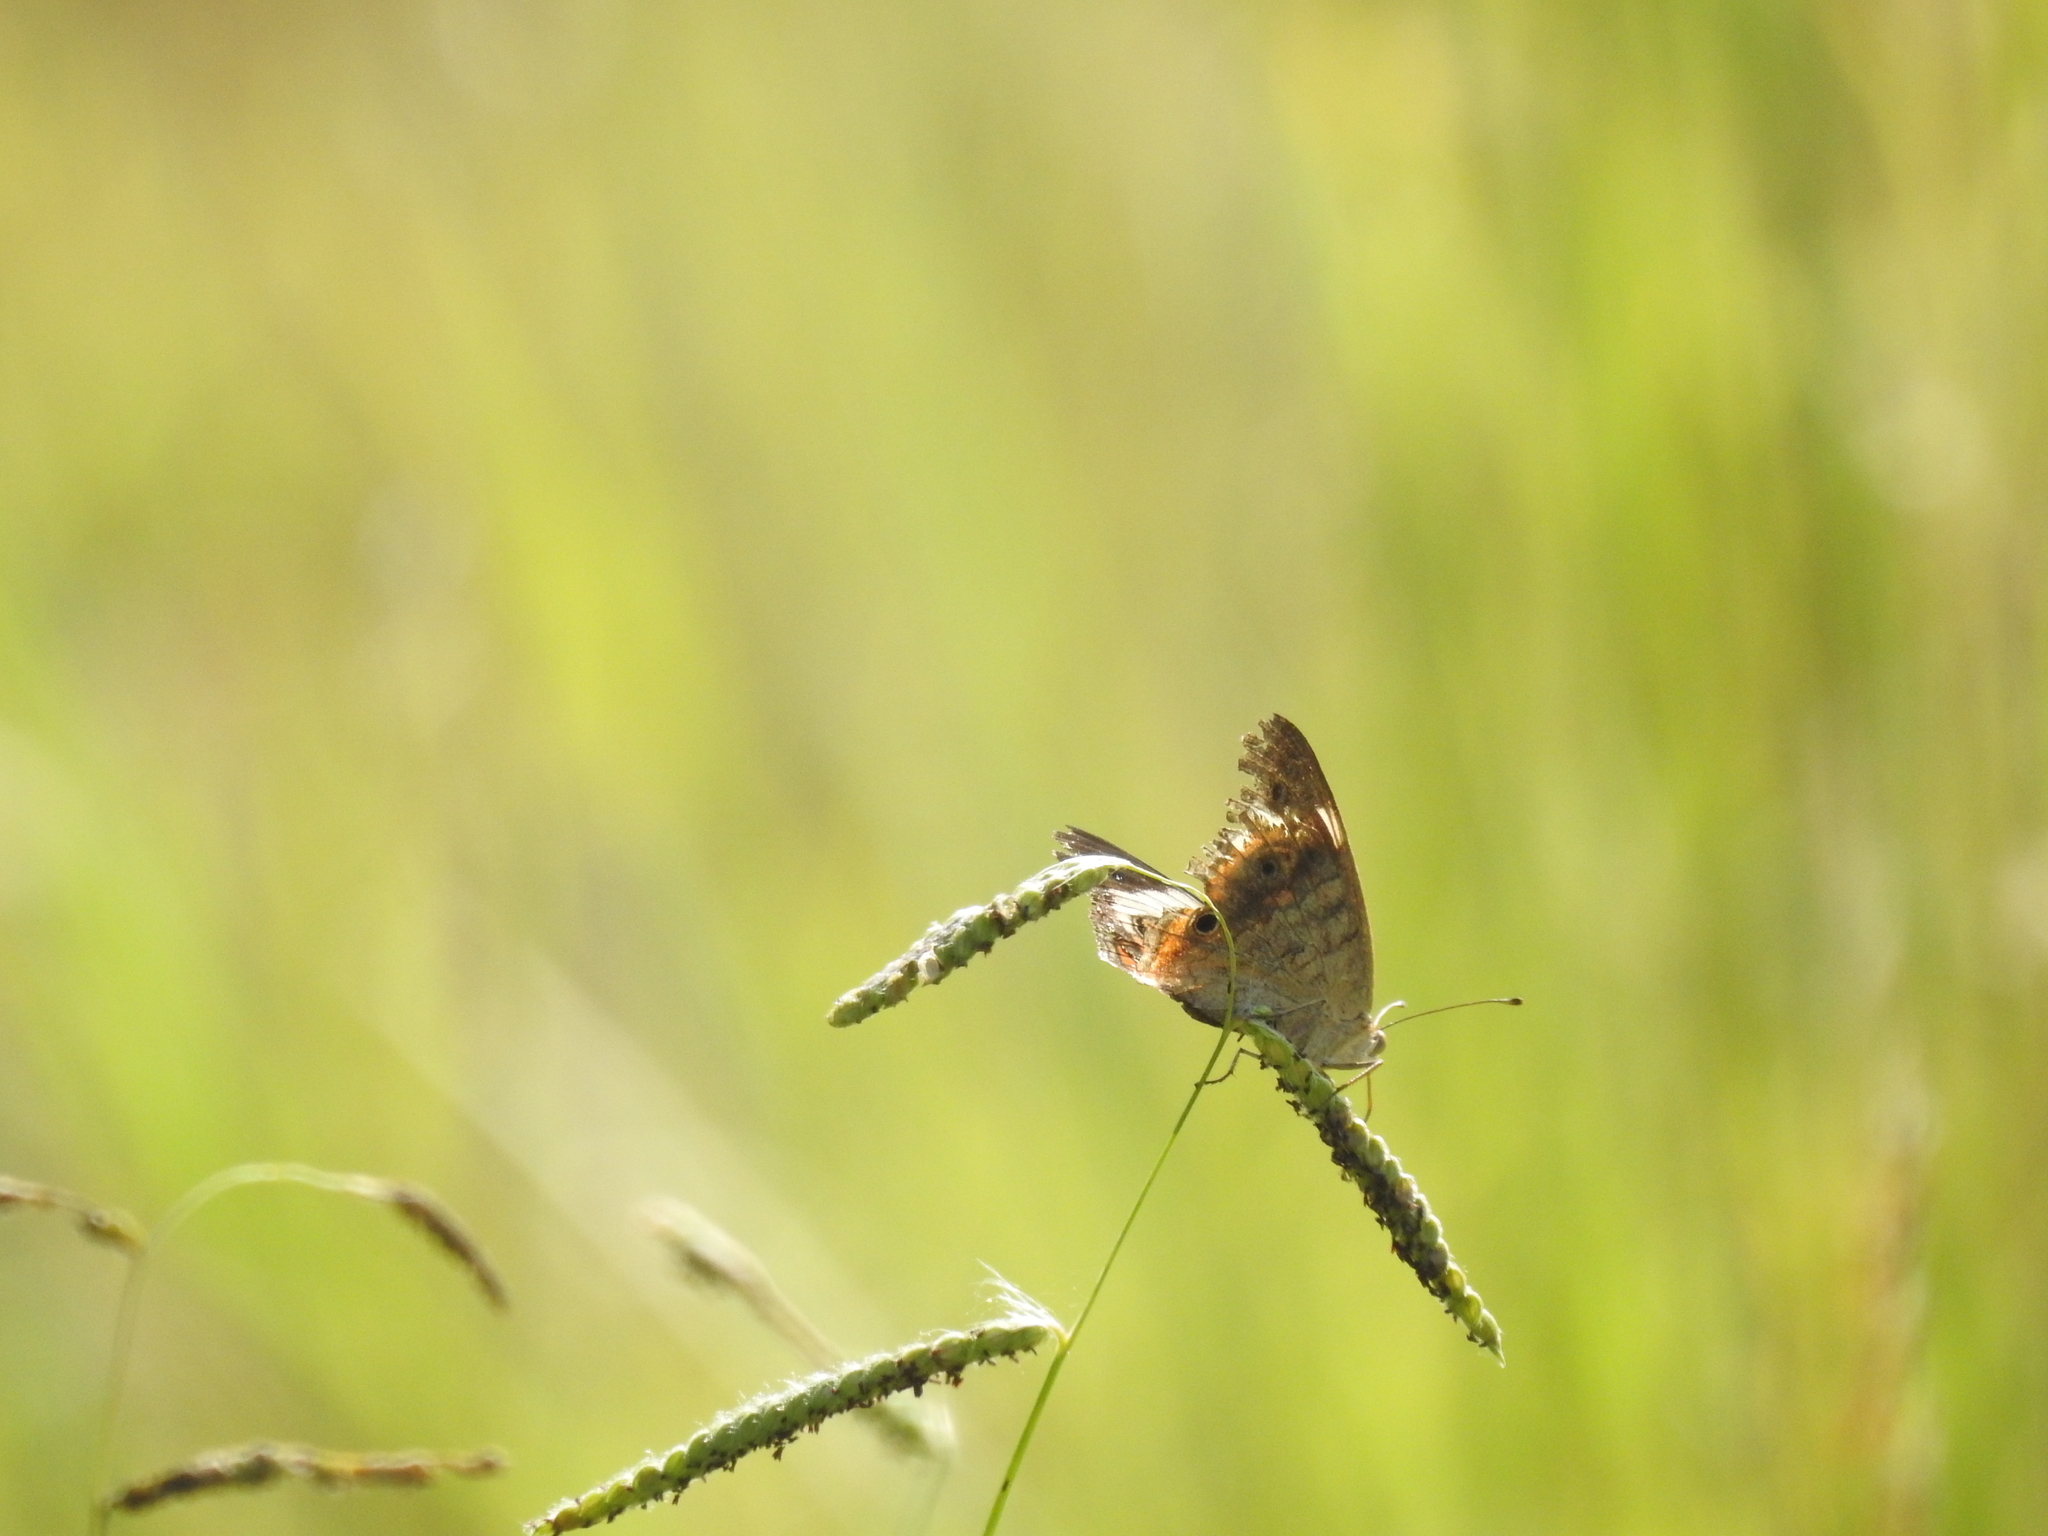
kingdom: Animalia
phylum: Arthropoda
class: Insecta
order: Lepidoptera
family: Nymphalidae
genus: Junonia
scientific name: Junonia coenia
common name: Common buckeye
